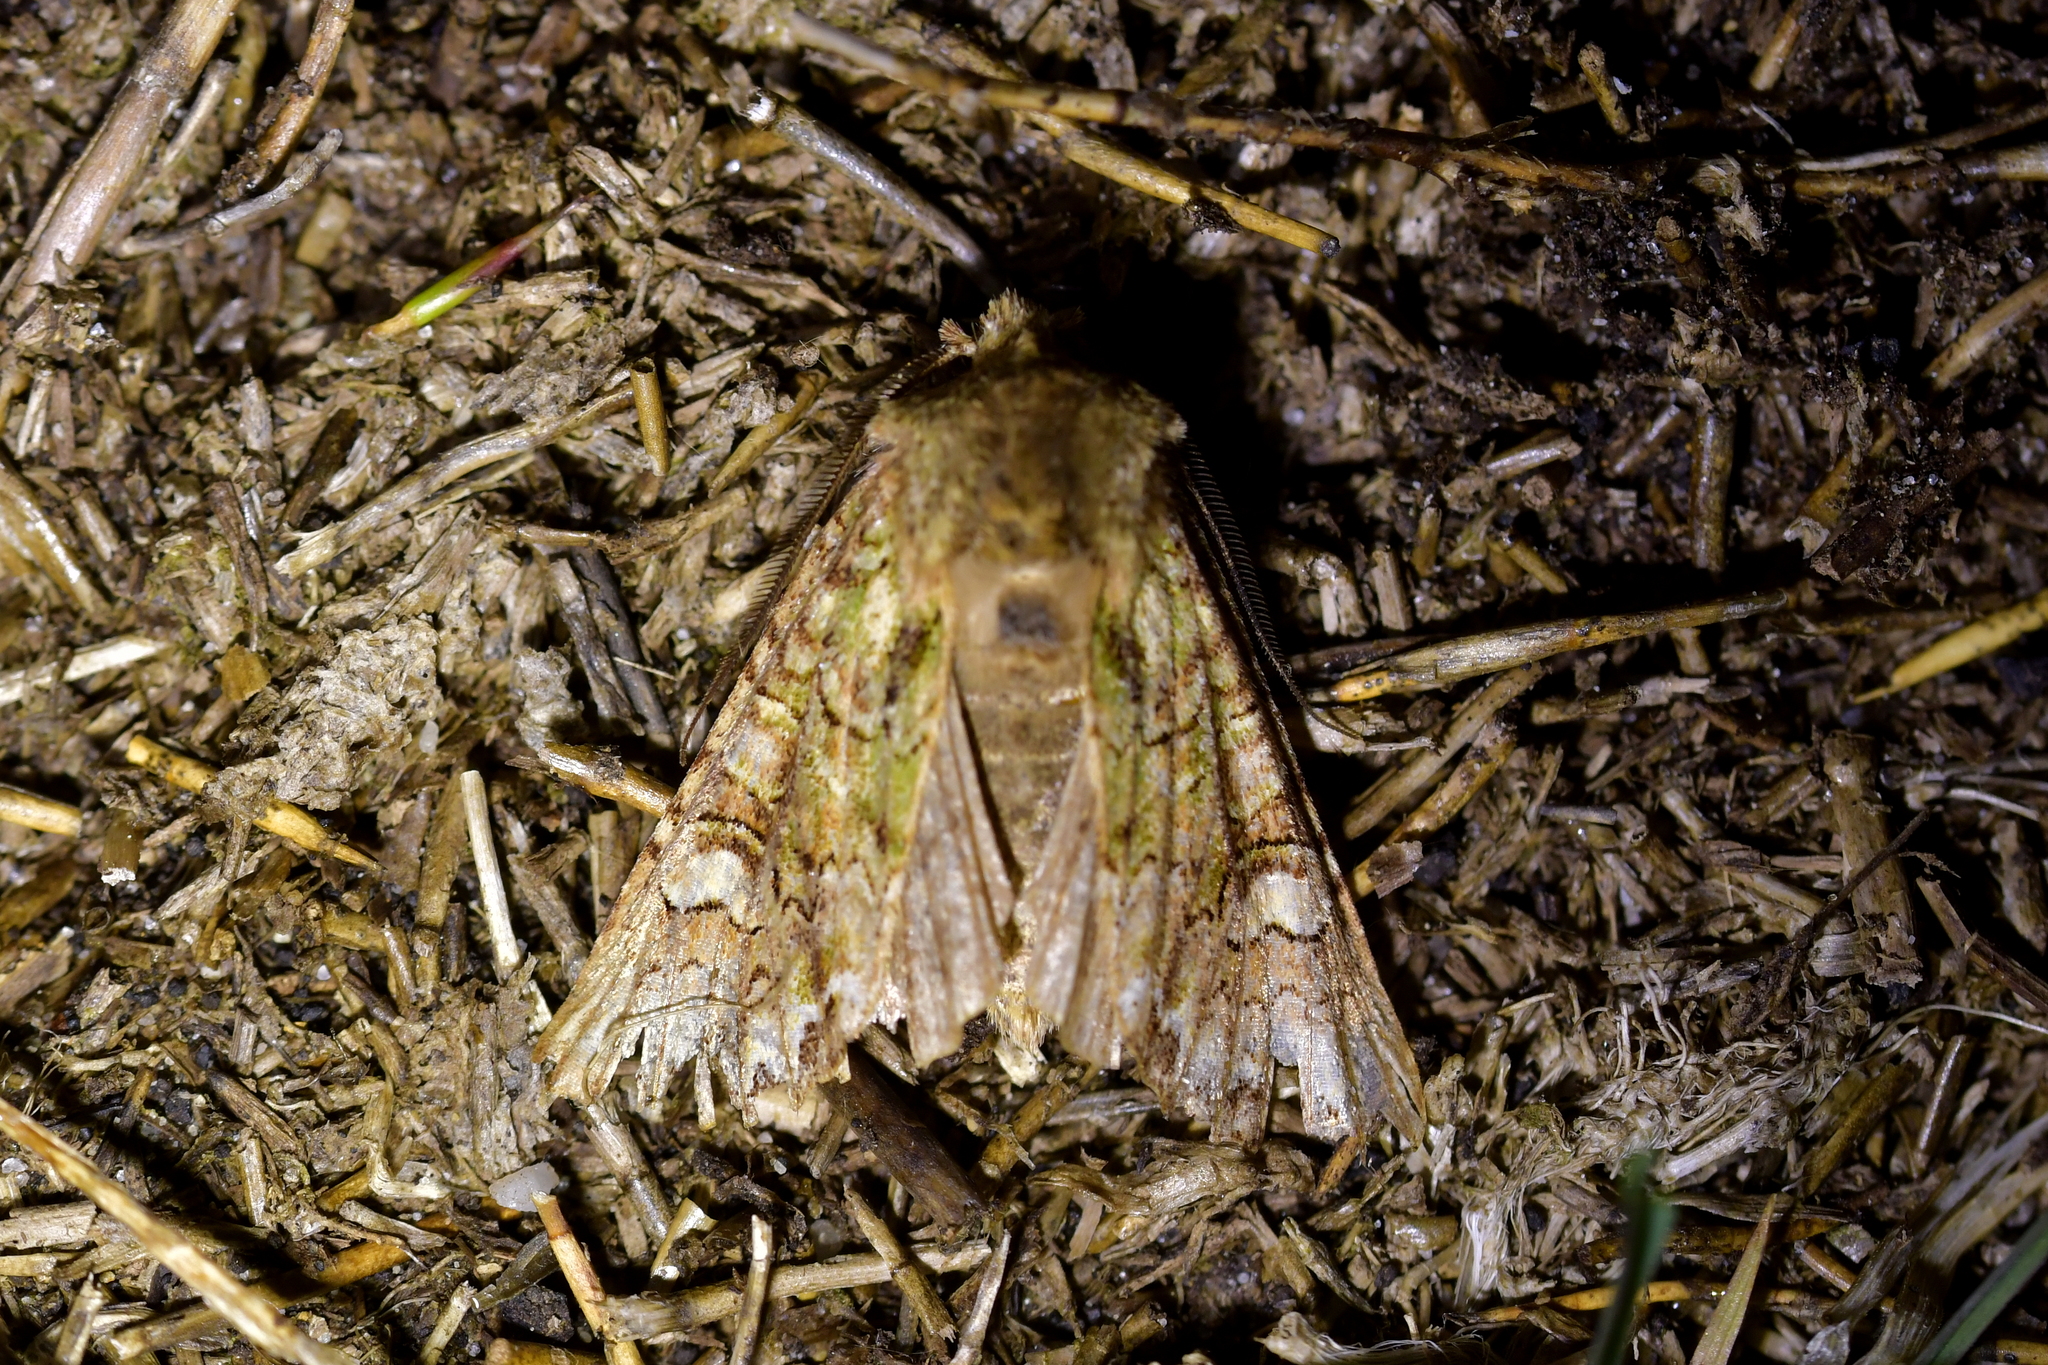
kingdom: Animalia
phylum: Arthropoda
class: Insecta
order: Lepidoptera
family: Noctuidae
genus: Ichneutica
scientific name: Ichneutica
